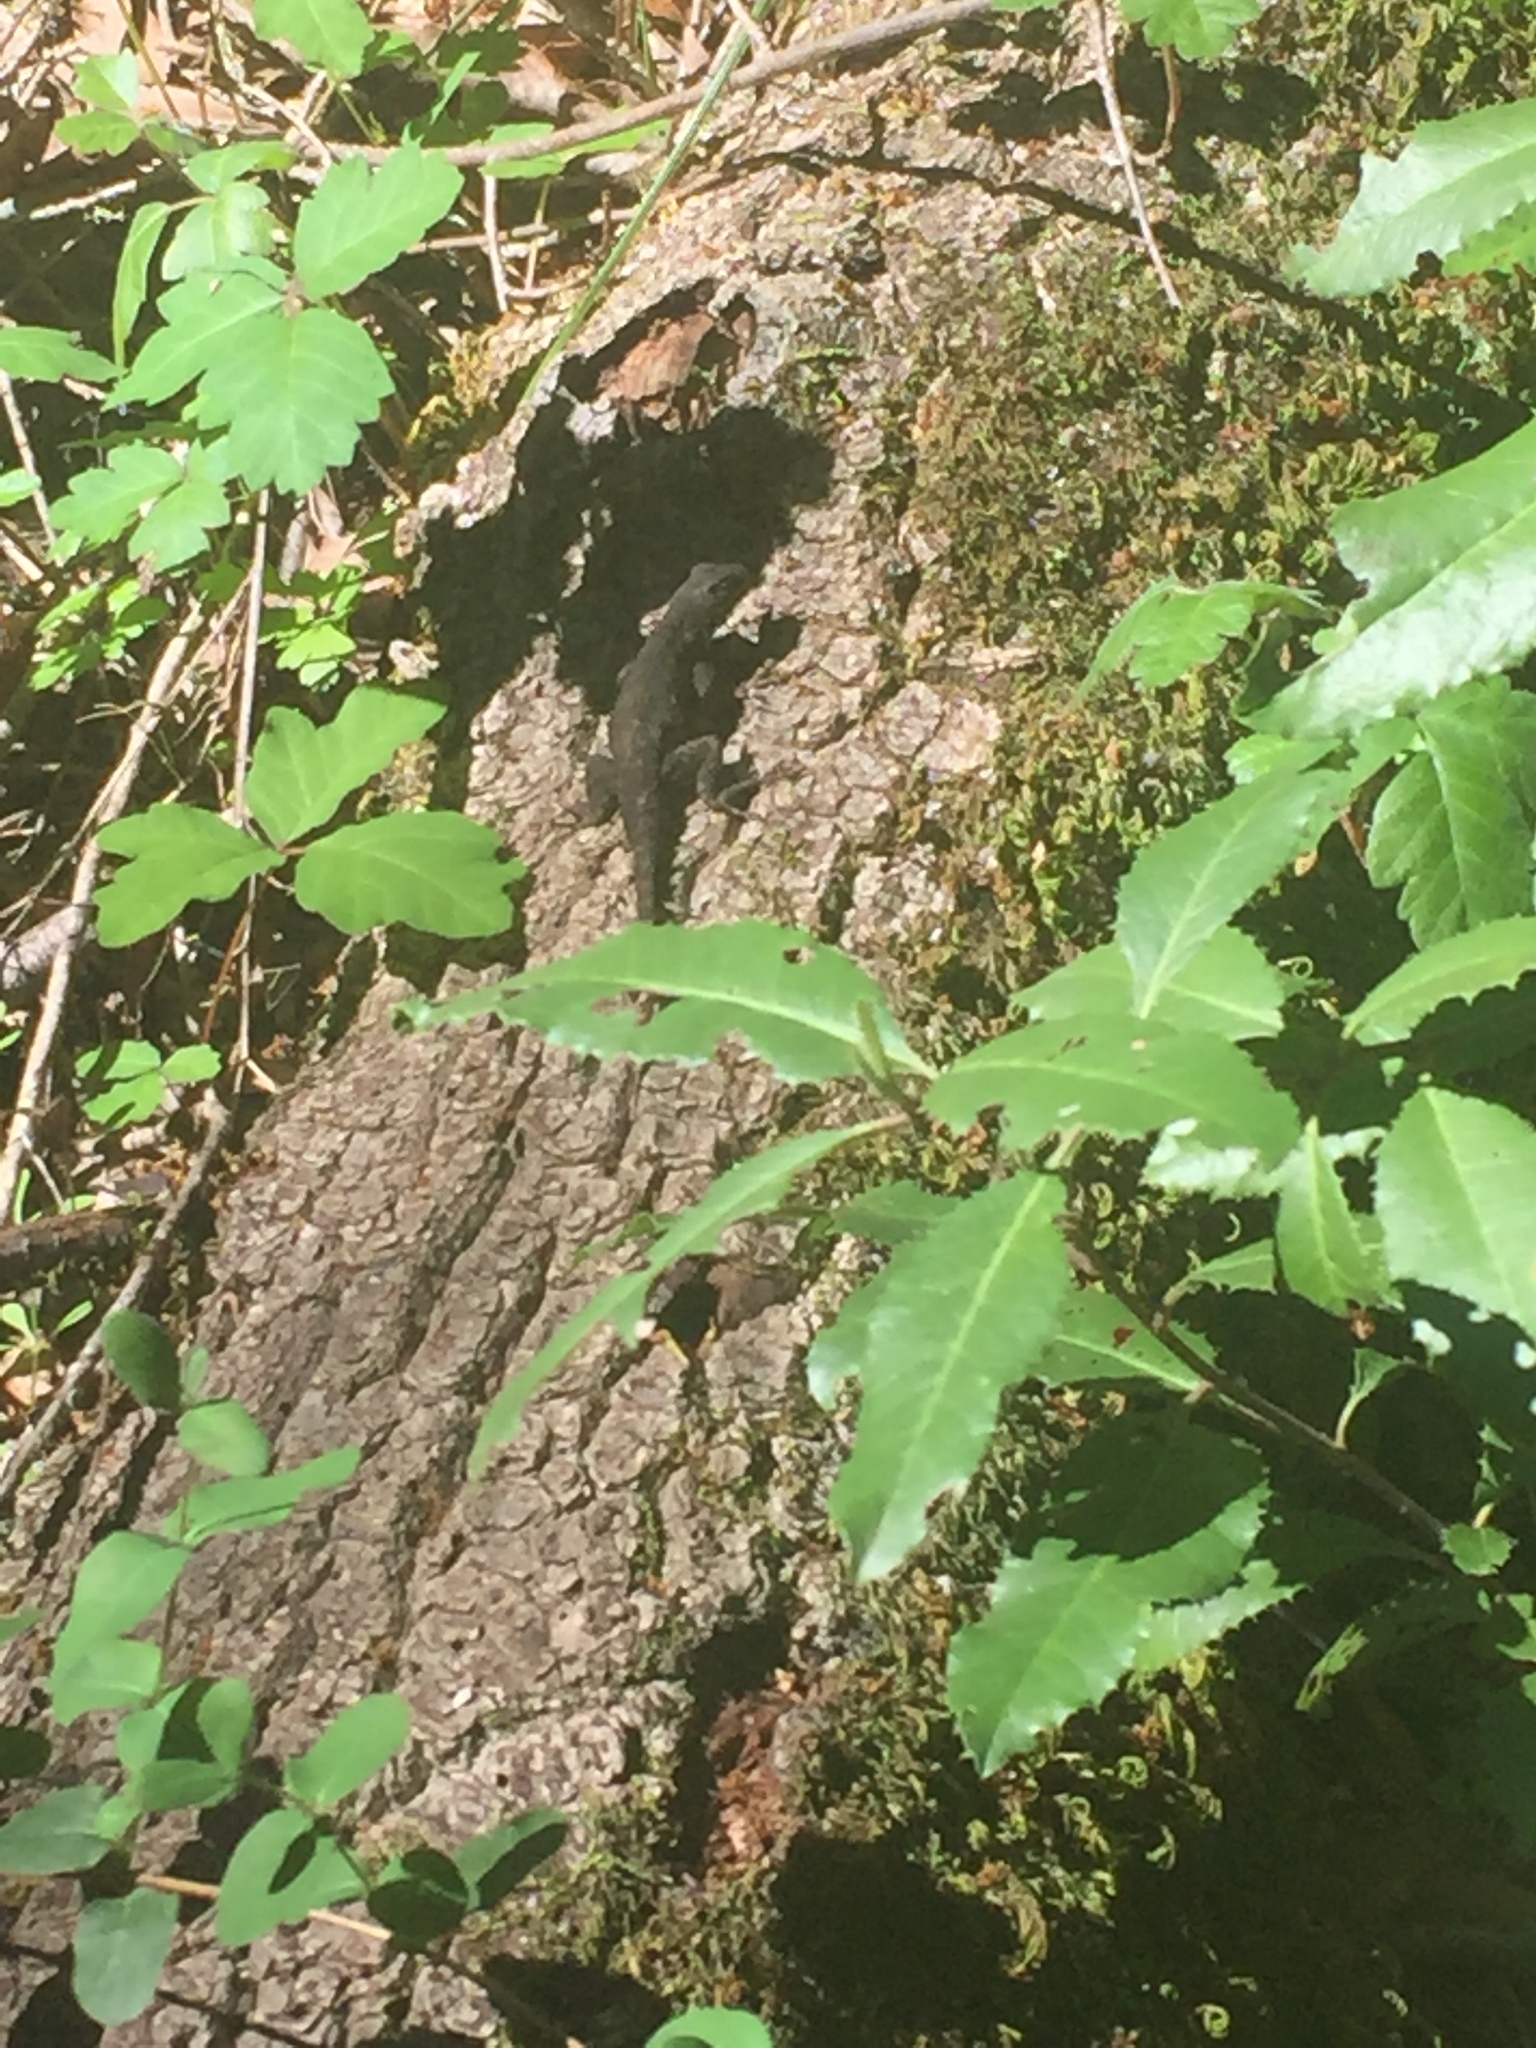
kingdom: Animalia
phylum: Chordata
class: Squamata
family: Phrynosomatidae
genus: Sceloporus
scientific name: Sceloporus occidentalis
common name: Western fence lizard
